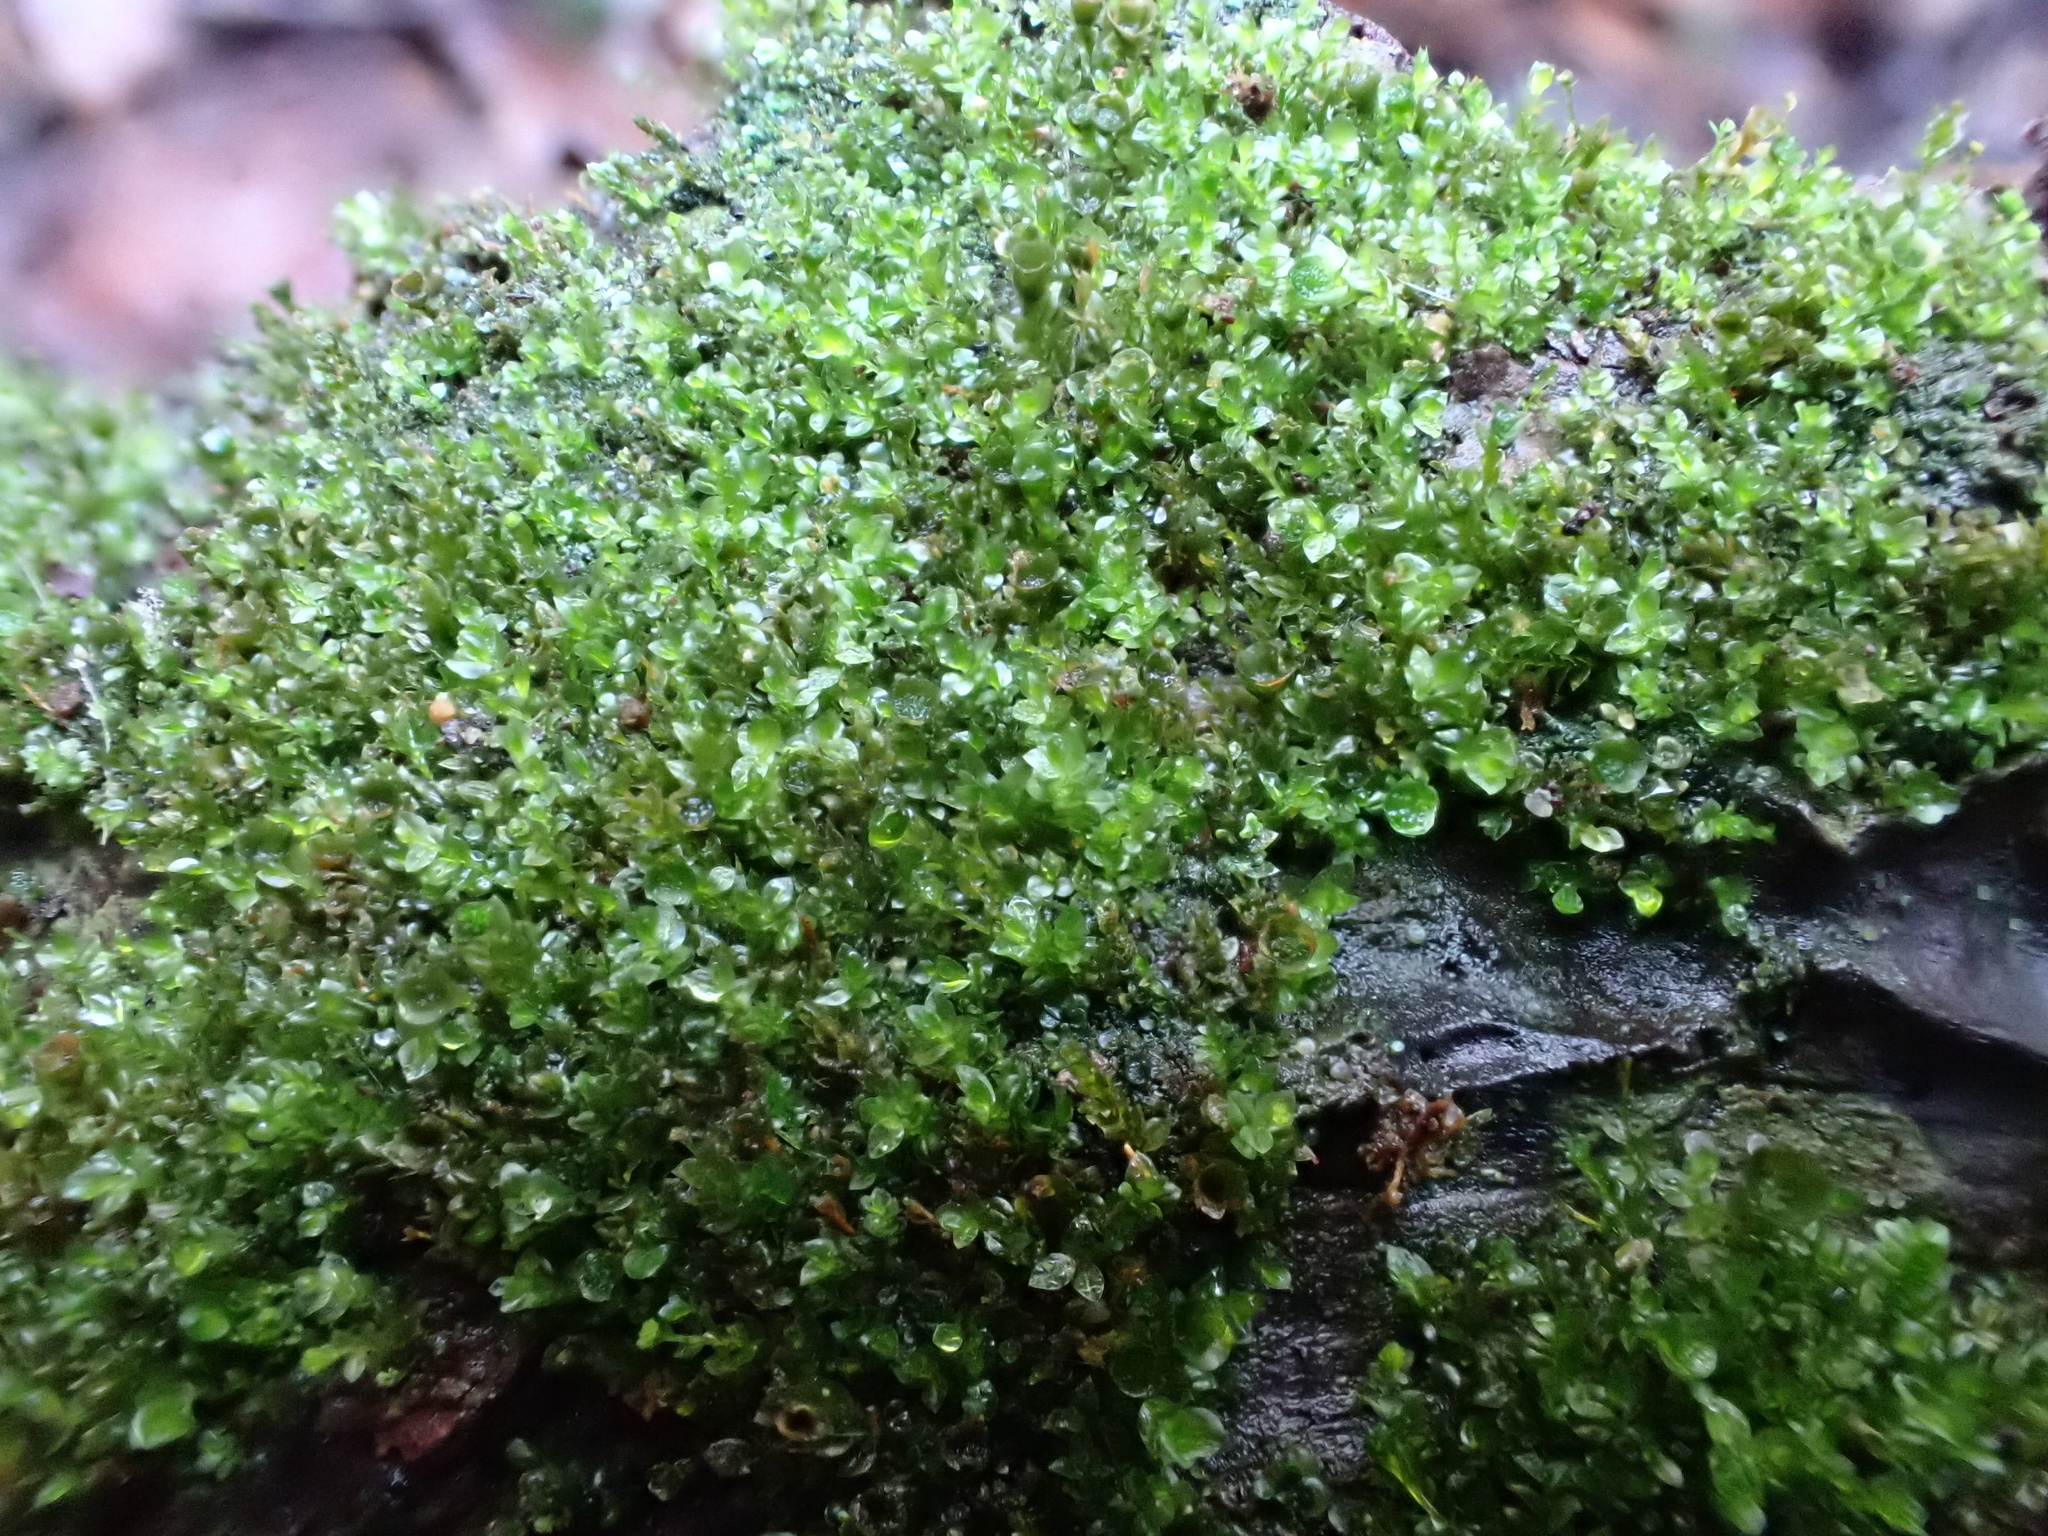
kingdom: Plantae
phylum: Bryophyta
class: Polytrichopsida
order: Tetraphidales
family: Tetraphidaceae
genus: Tetraphis
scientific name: Tetraphis pellucida
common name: Common four-toothed moss
